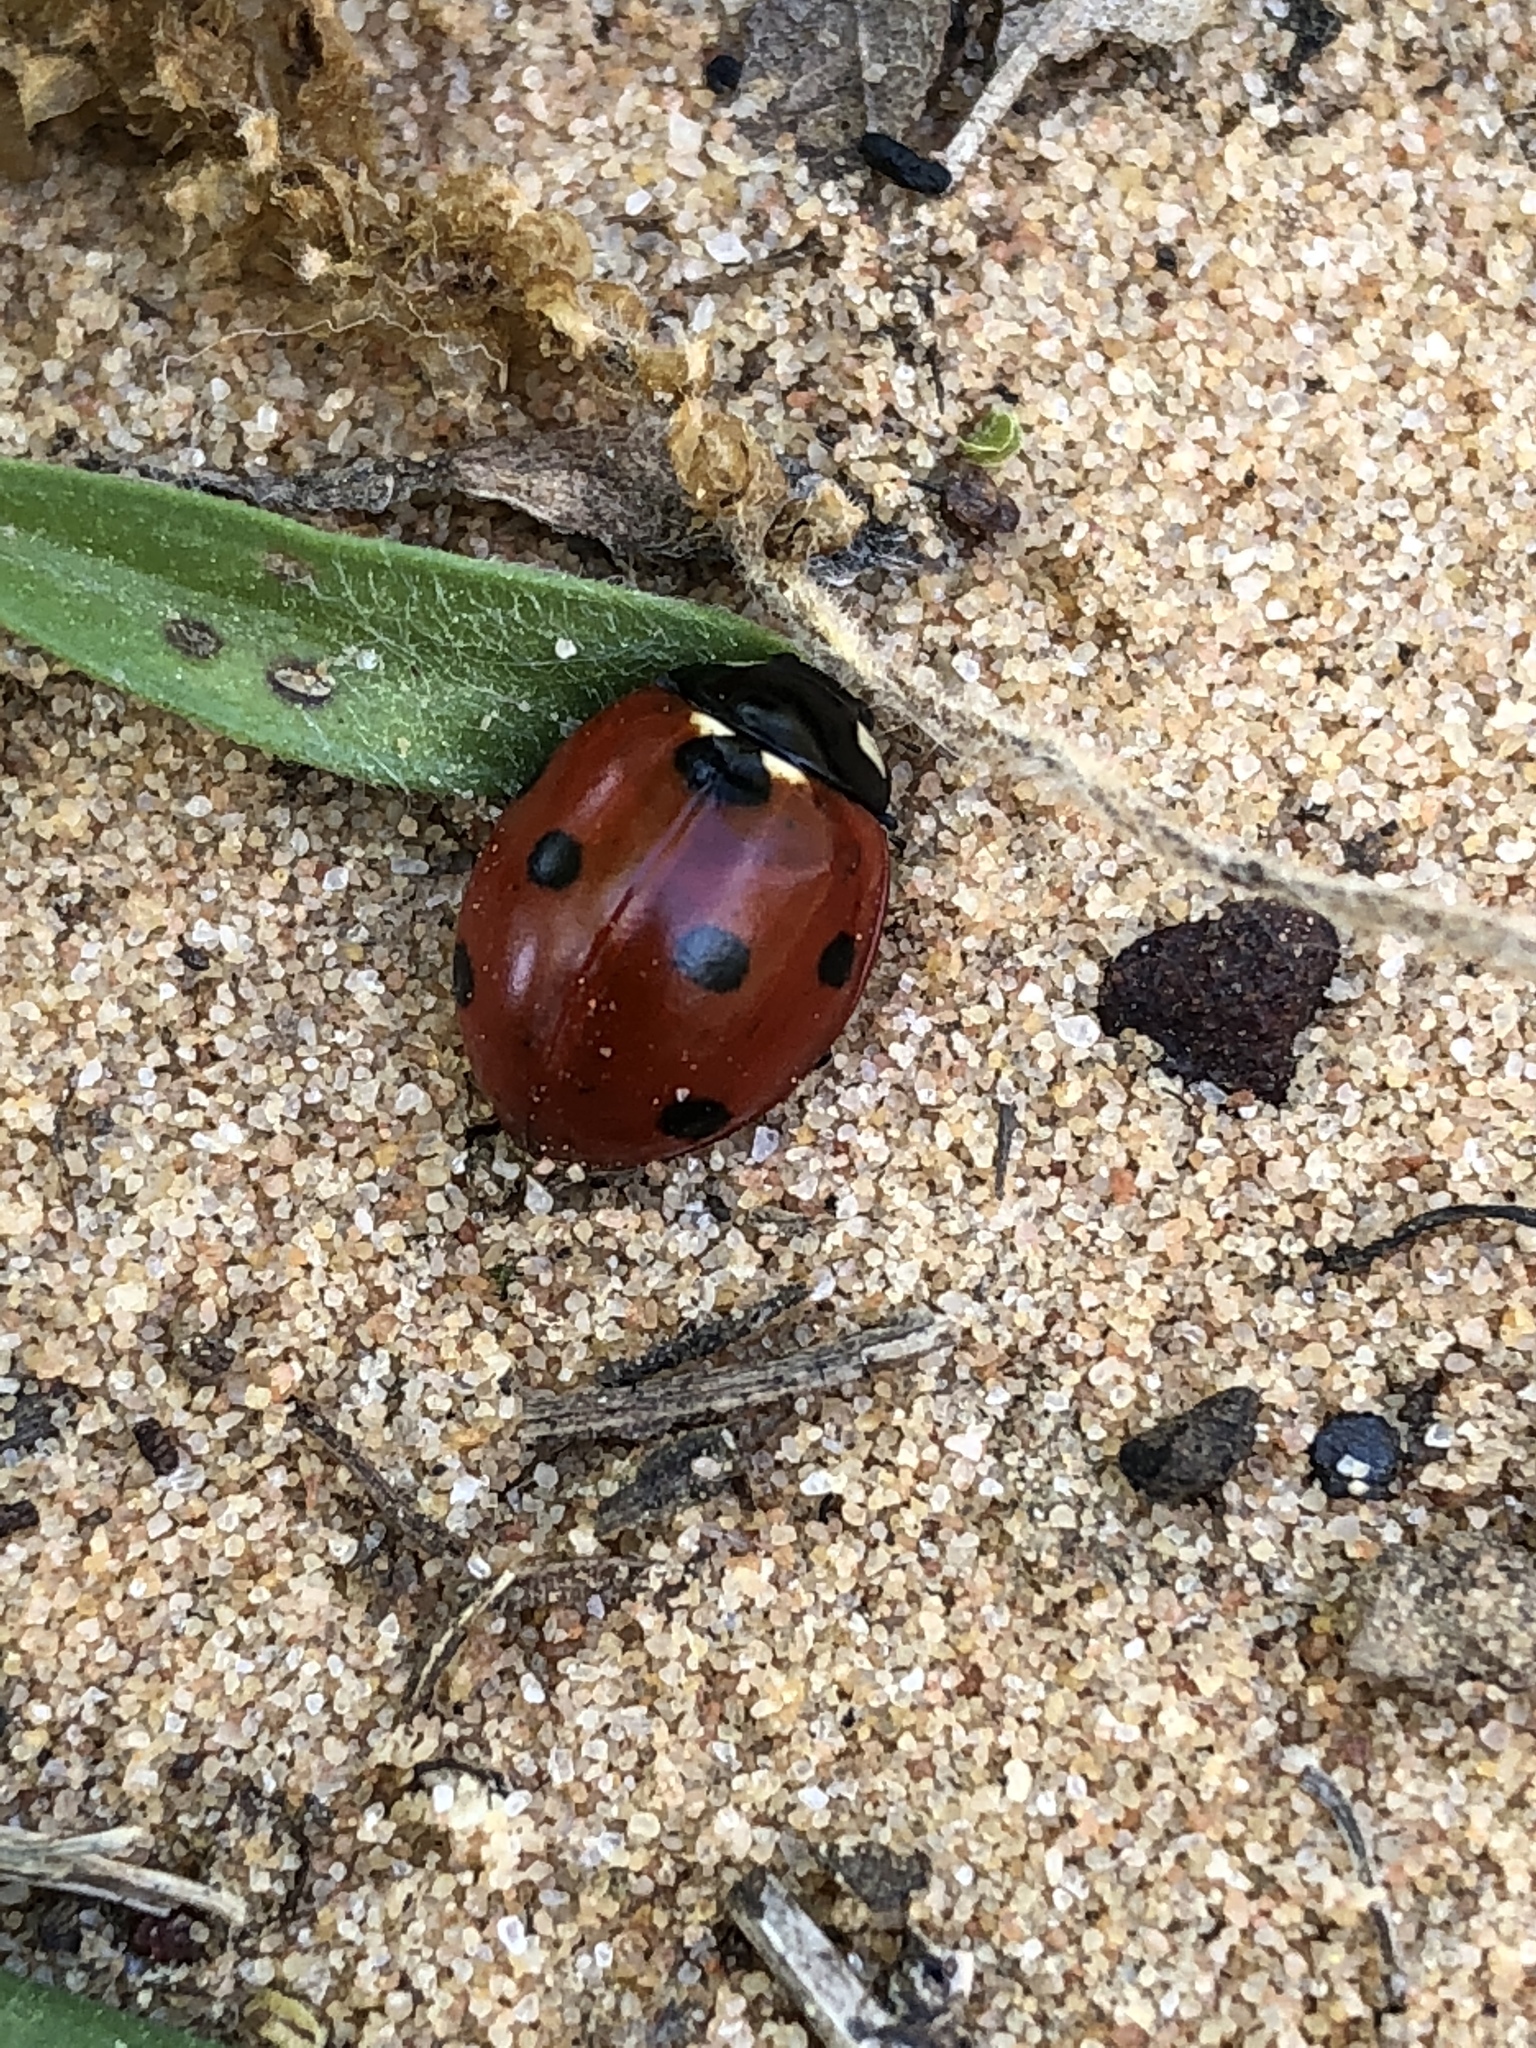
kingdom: Animalia
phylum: Arthropoda
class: Insecta
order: Coleoptera
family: Coccinellidae
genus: Coccinella
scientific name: Coccinella septempunctata
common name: Sevenspotted lady beetle
